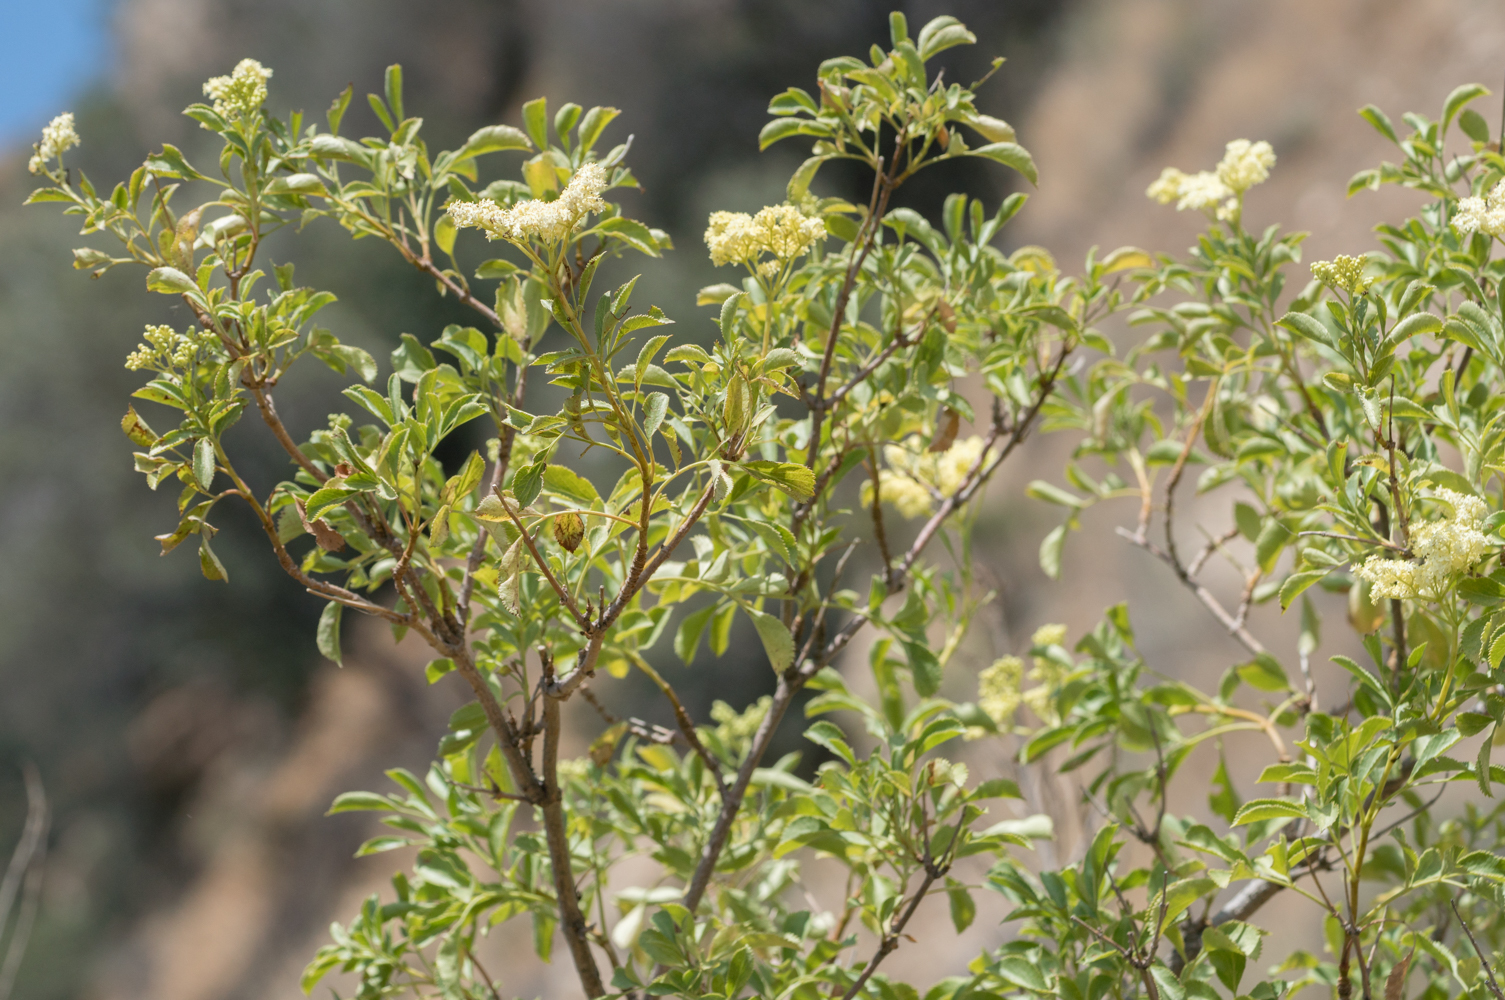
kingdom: Plantae
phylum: Tracheophyta
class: Magnoliopsida
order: Dipsacales
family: Viburnaceae
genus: Sambucus
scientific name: Sambucus cerulea
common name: Blue elder
